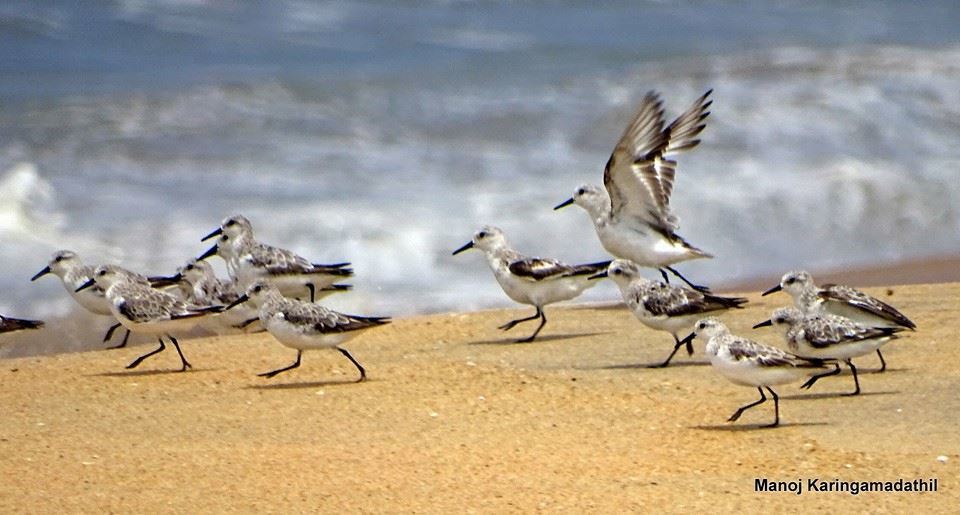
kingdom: Animalia
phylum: Chordata
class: Aves
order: Charadriiformes
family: Scolopacidae
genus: Calidris
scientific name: Calidris alba
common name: Sanderling
